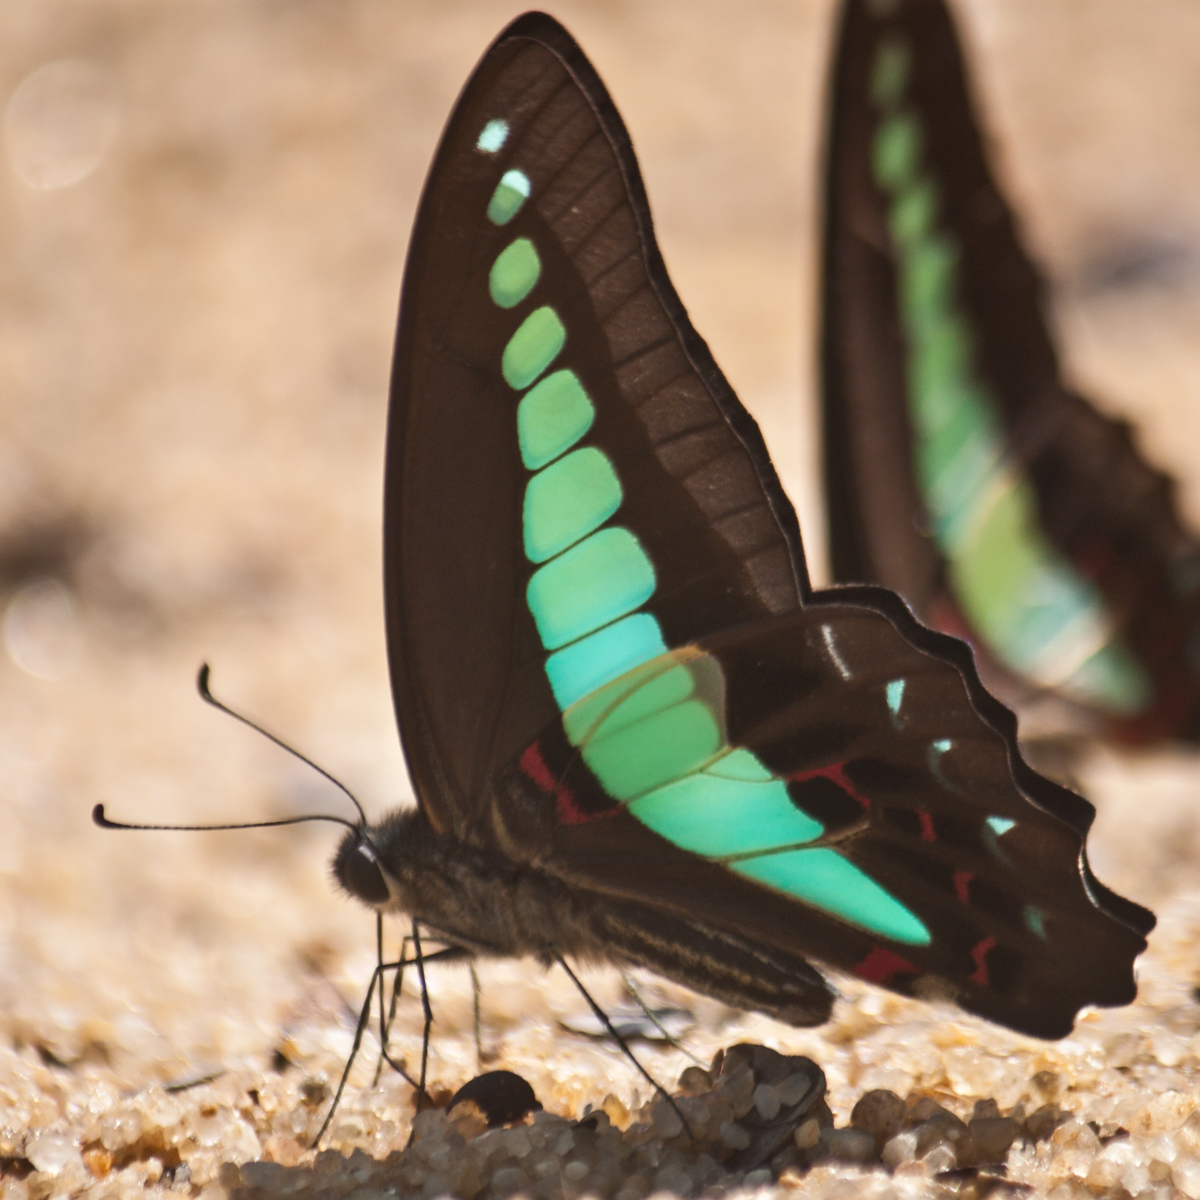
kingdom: Fungi
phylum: Ascomycota
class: Sordariomycetes
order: Microascales
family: Microascaceae
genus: Graphium
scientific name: Graphium sarpedon
